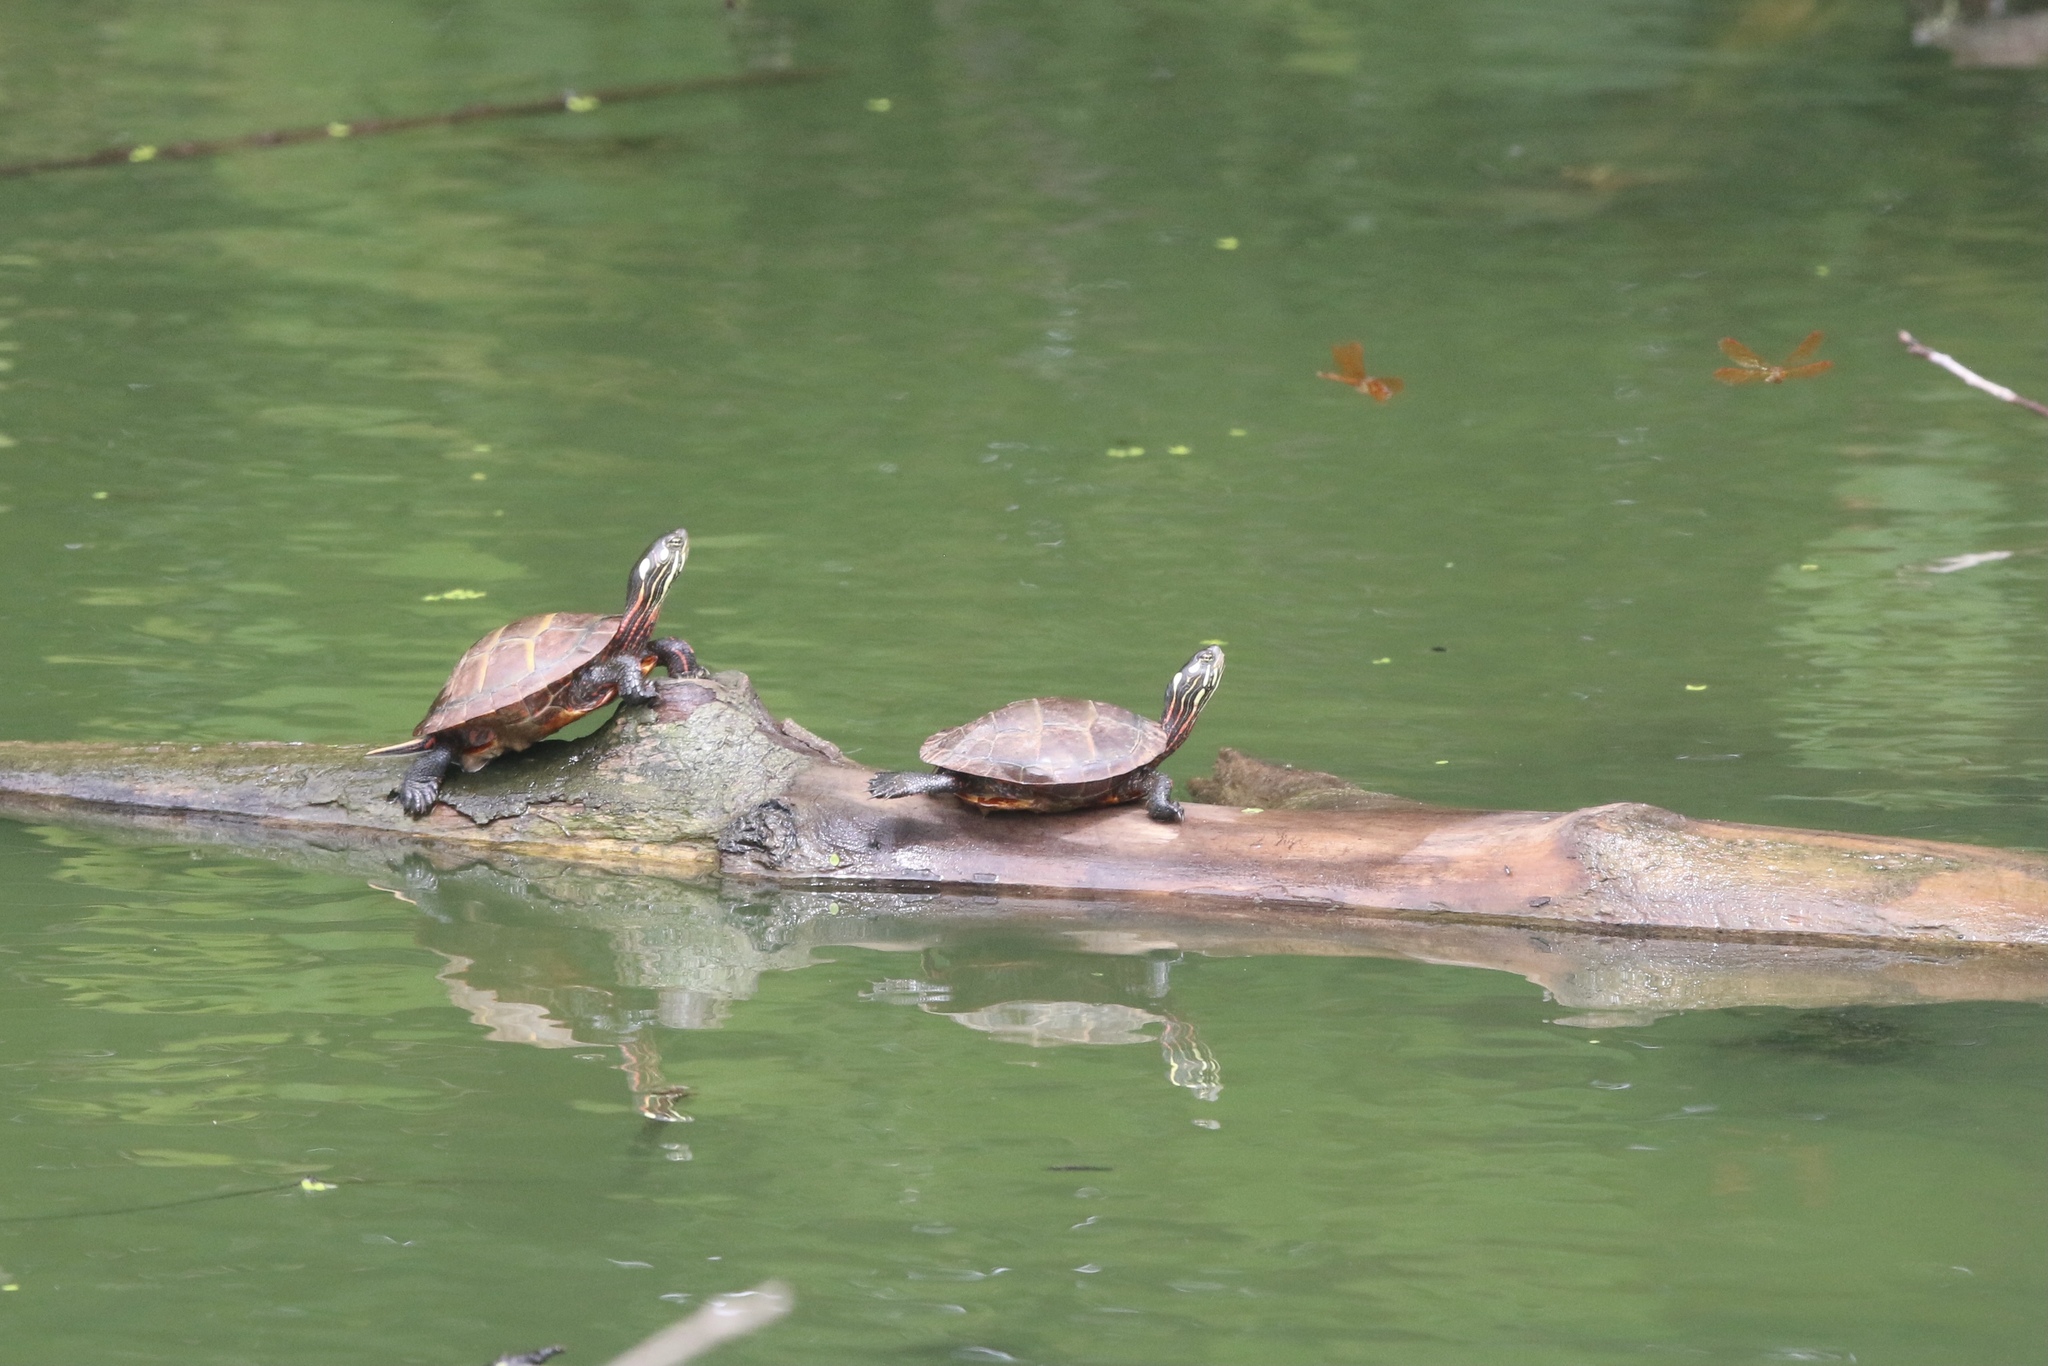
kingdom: Animalia
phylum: Chordata
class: Testudines
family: Emydidae
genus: Chrysemys
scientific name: Chrysemys picta
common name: Painted turtle
